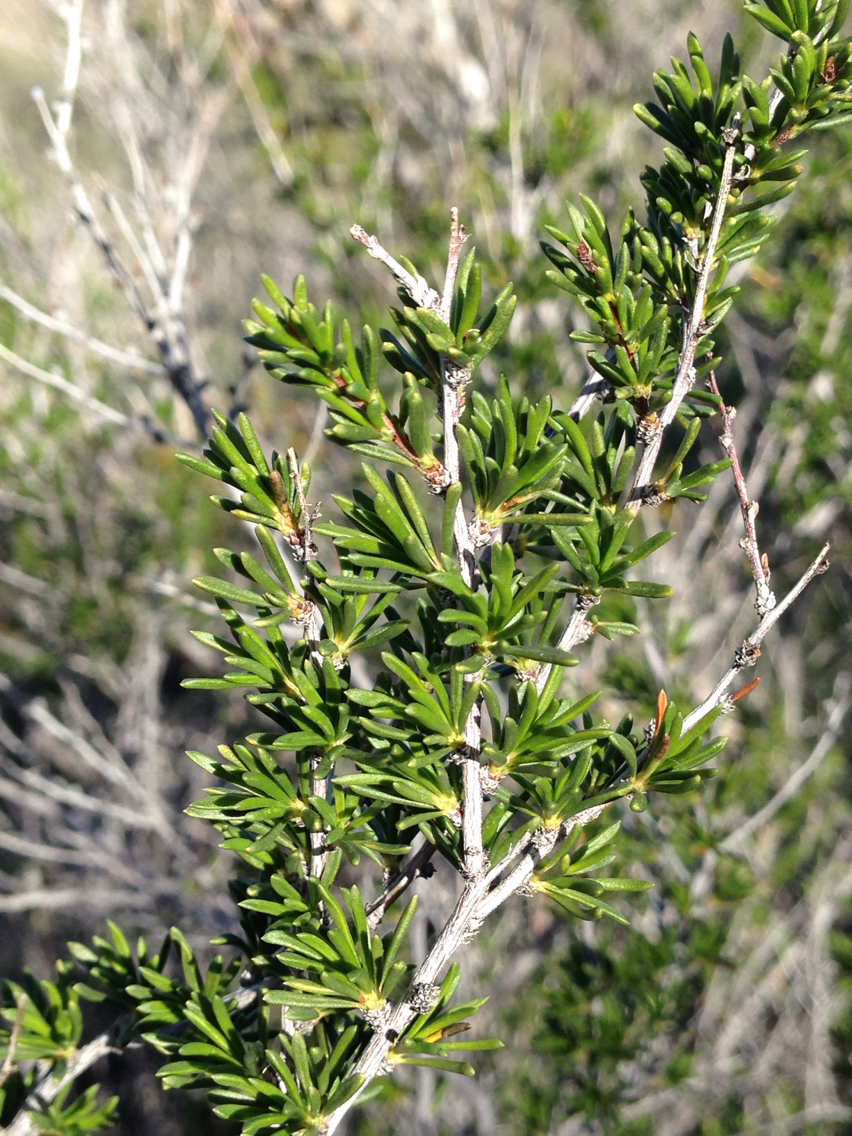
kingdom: Plantae
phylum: Tracheophyta
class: Magnoliopsida
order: Rosales
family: Rosaceae
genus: Adenostoma
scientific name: Adenostoma fasciculatum
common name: Chamise
